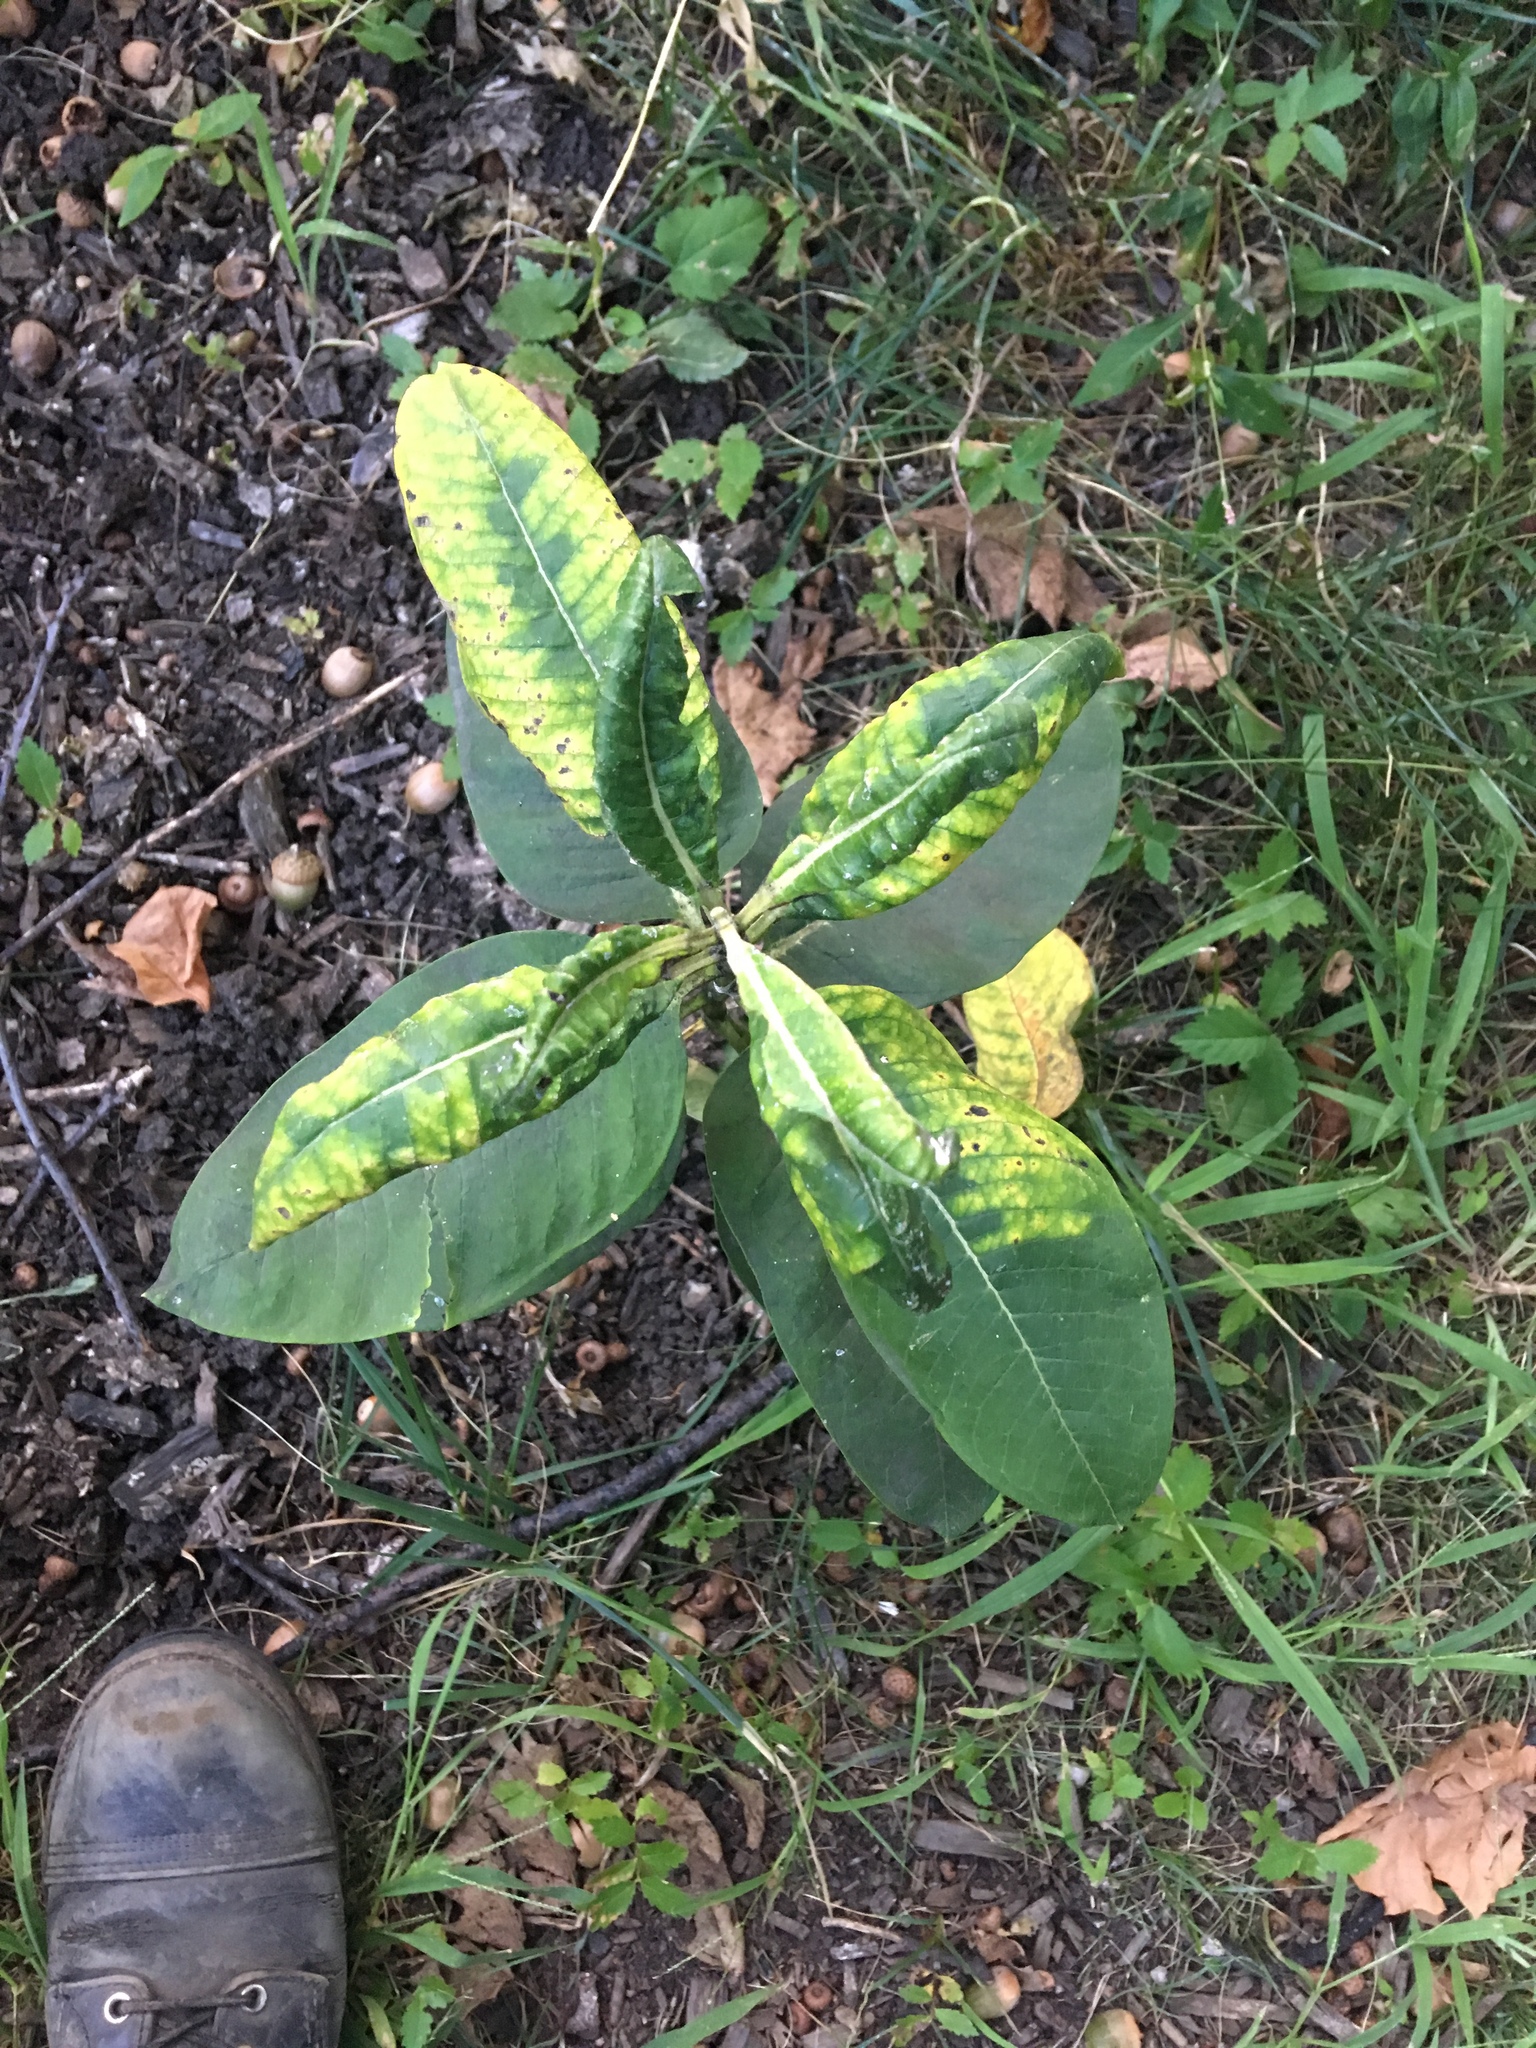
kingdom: Plantae
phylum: Tracheophyta
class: Magnoliopsida
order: Gentianales
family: Apocynaceae
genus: Asclepias
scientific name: Asclepias syriaca
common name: Common milkweed
